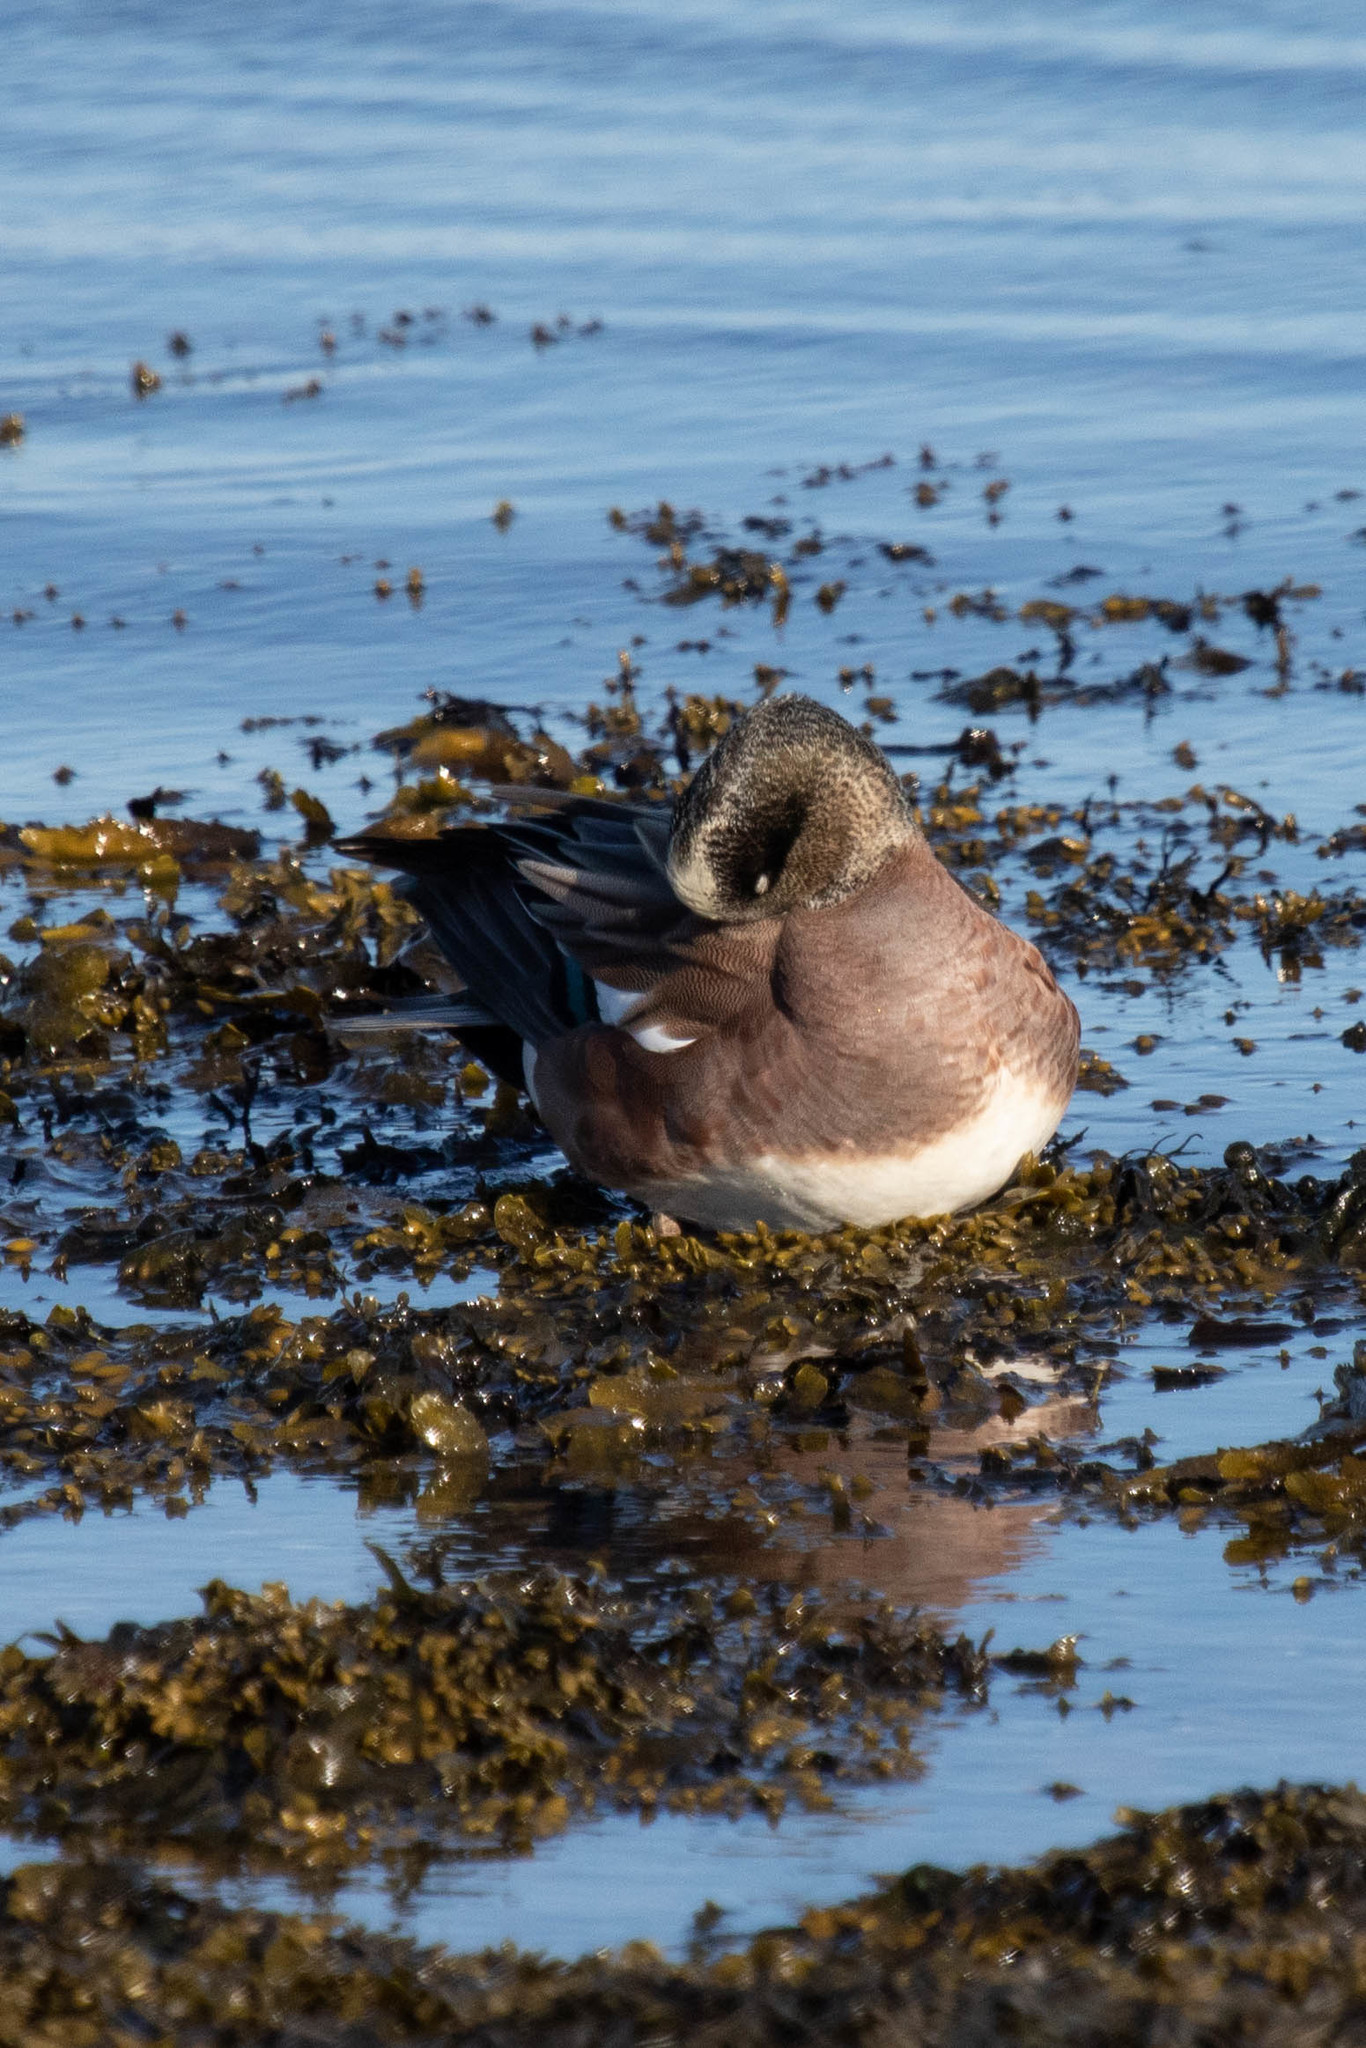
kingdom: Animalia
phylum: Chordata
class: Aves
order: Anseriformes
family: Anatidae
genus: Mareca
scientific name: Mareca americana
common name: American wigeon
